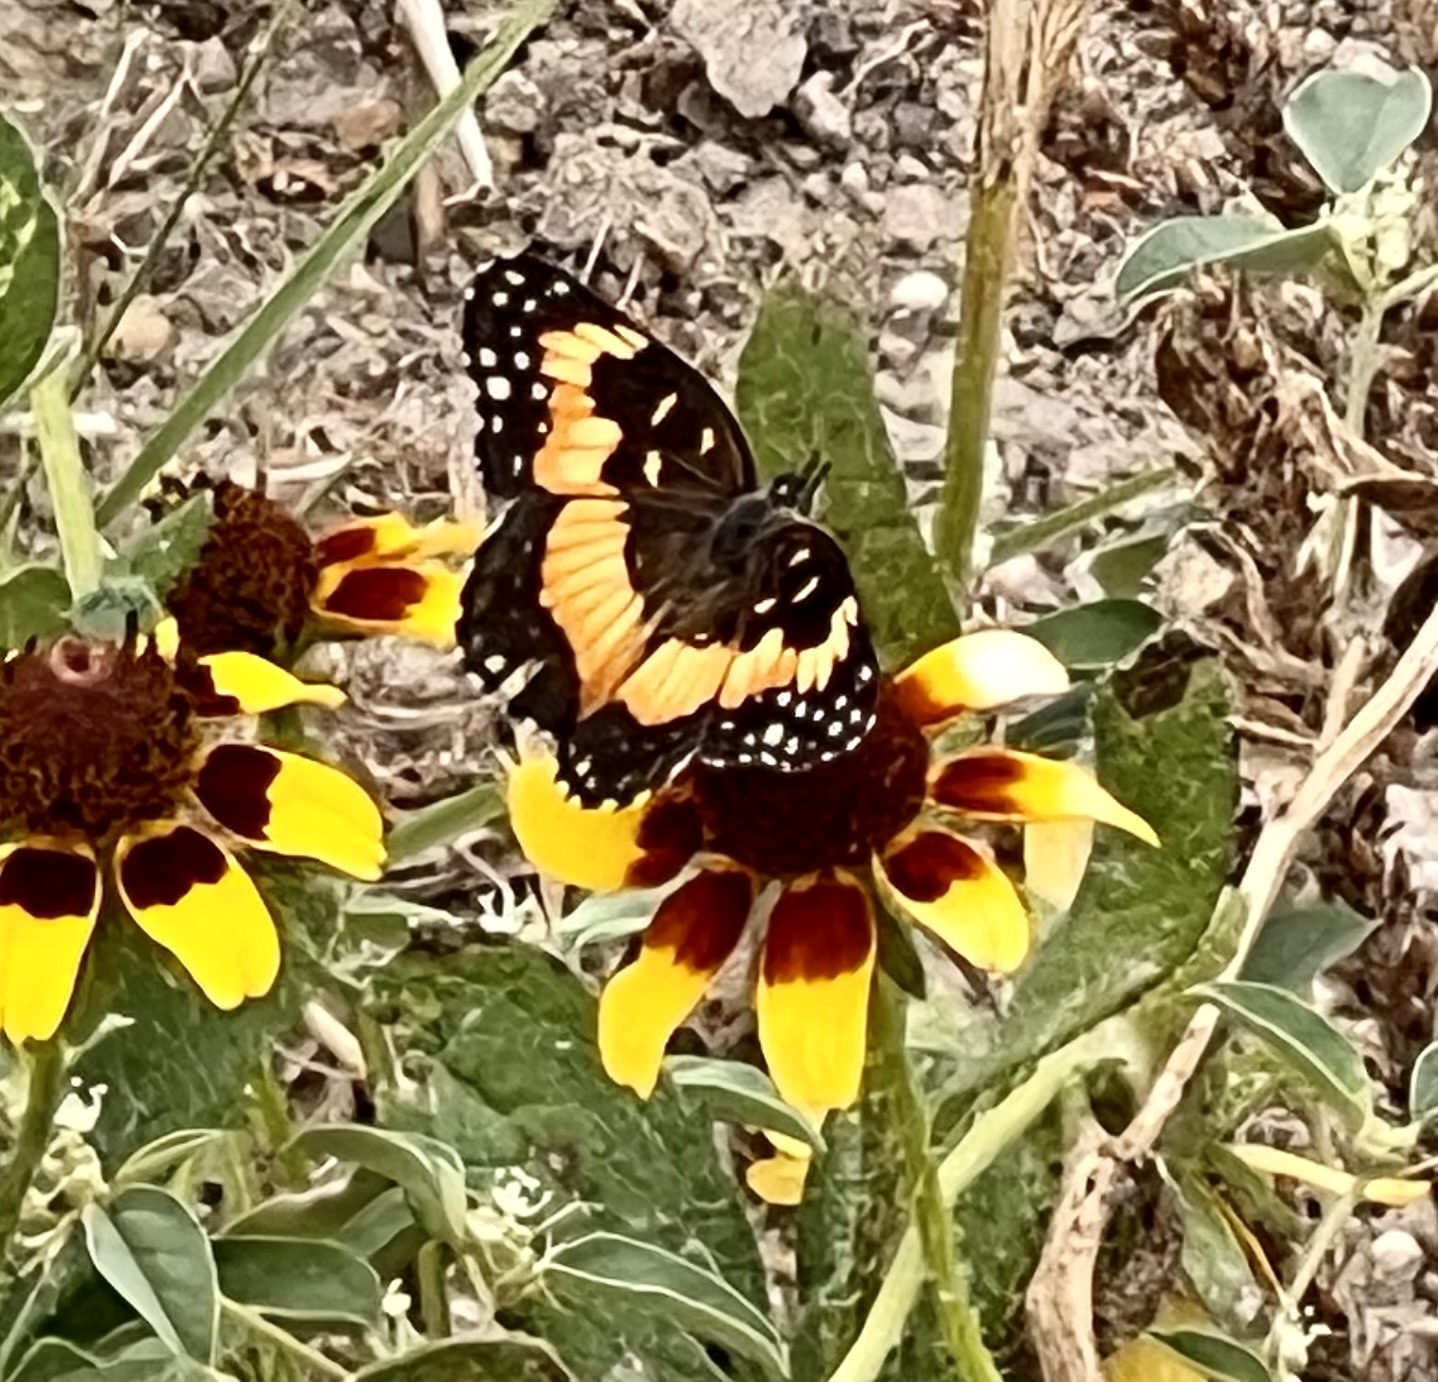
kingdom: Animalia
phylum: Arthropoda
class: Insecta
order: Lepidoptera
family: Nymphalidae
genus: Chlosyne
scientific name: Chlosyne lacinia
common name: Bordered patch
